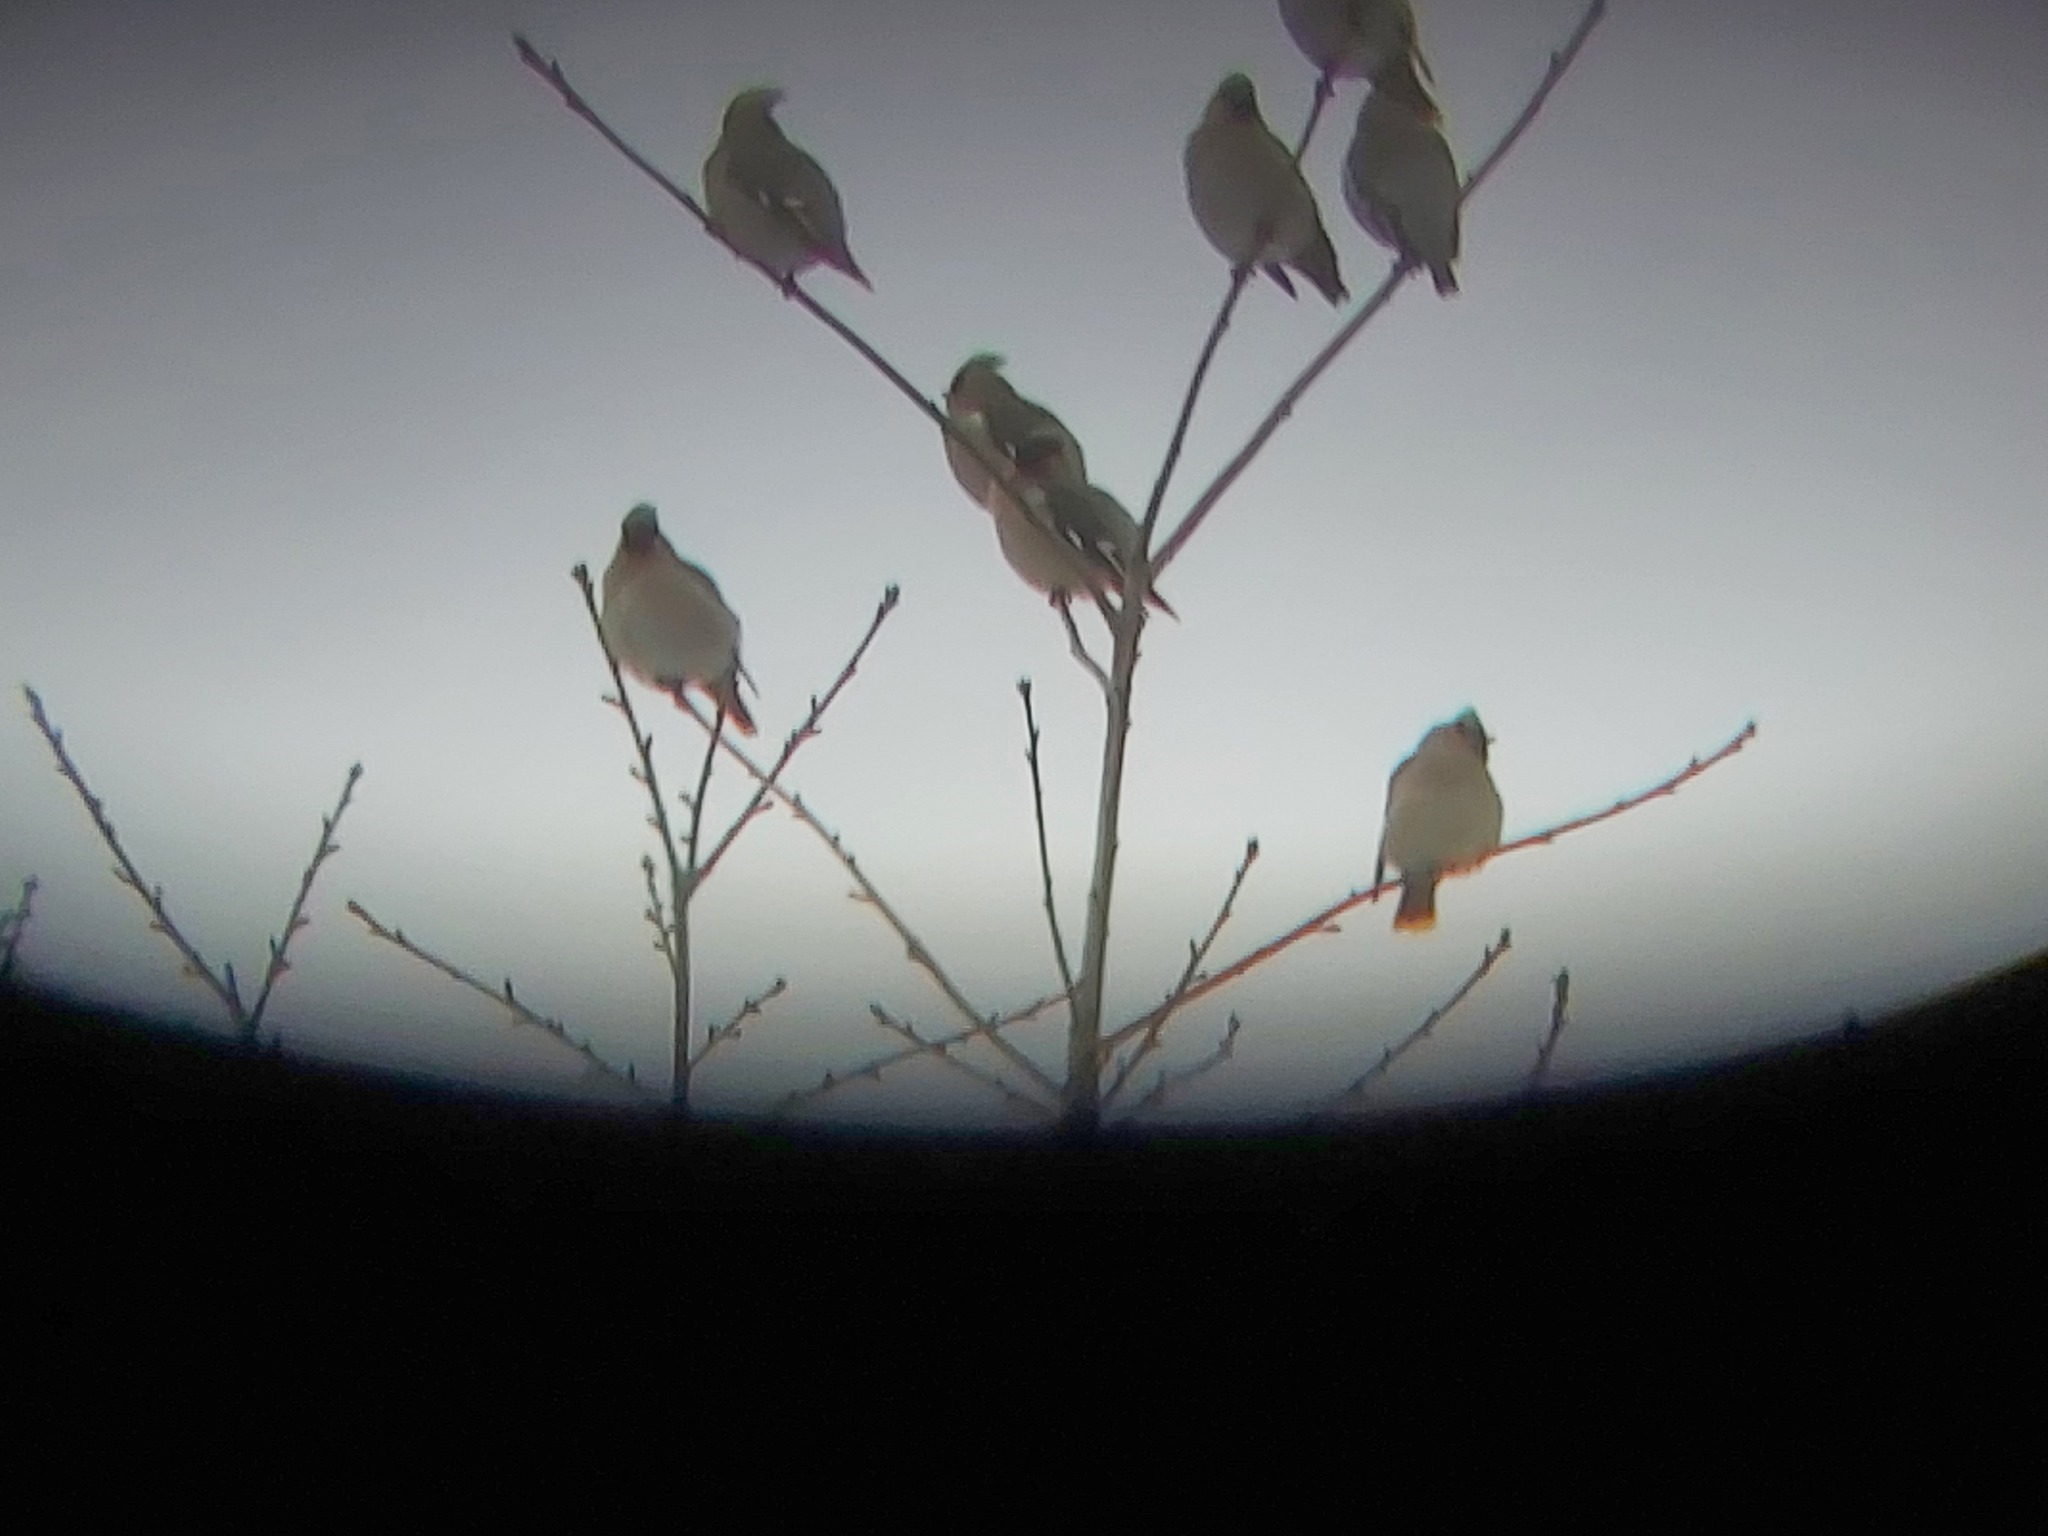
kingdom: Animalia
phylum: Chordata
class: Aves
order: Passeriformes
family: Bombycillidae
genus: Bombycilla
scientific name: Bombycilla garrulus
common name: Bohemian waxwing
